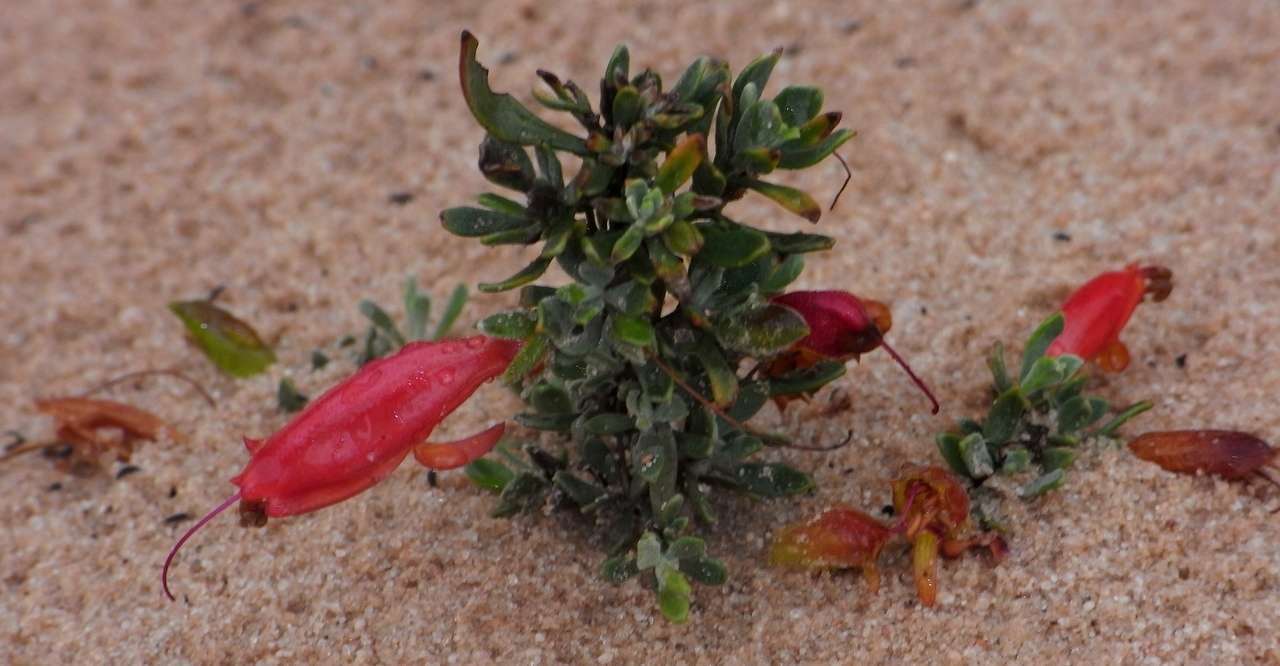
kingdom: Plantae
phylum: Tracheophyta
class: Magnoliopsida
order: Lamiales
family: Scrophulariaceae
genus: Eremophila
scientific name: Eremophila glabra
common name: Black-fuchsia
